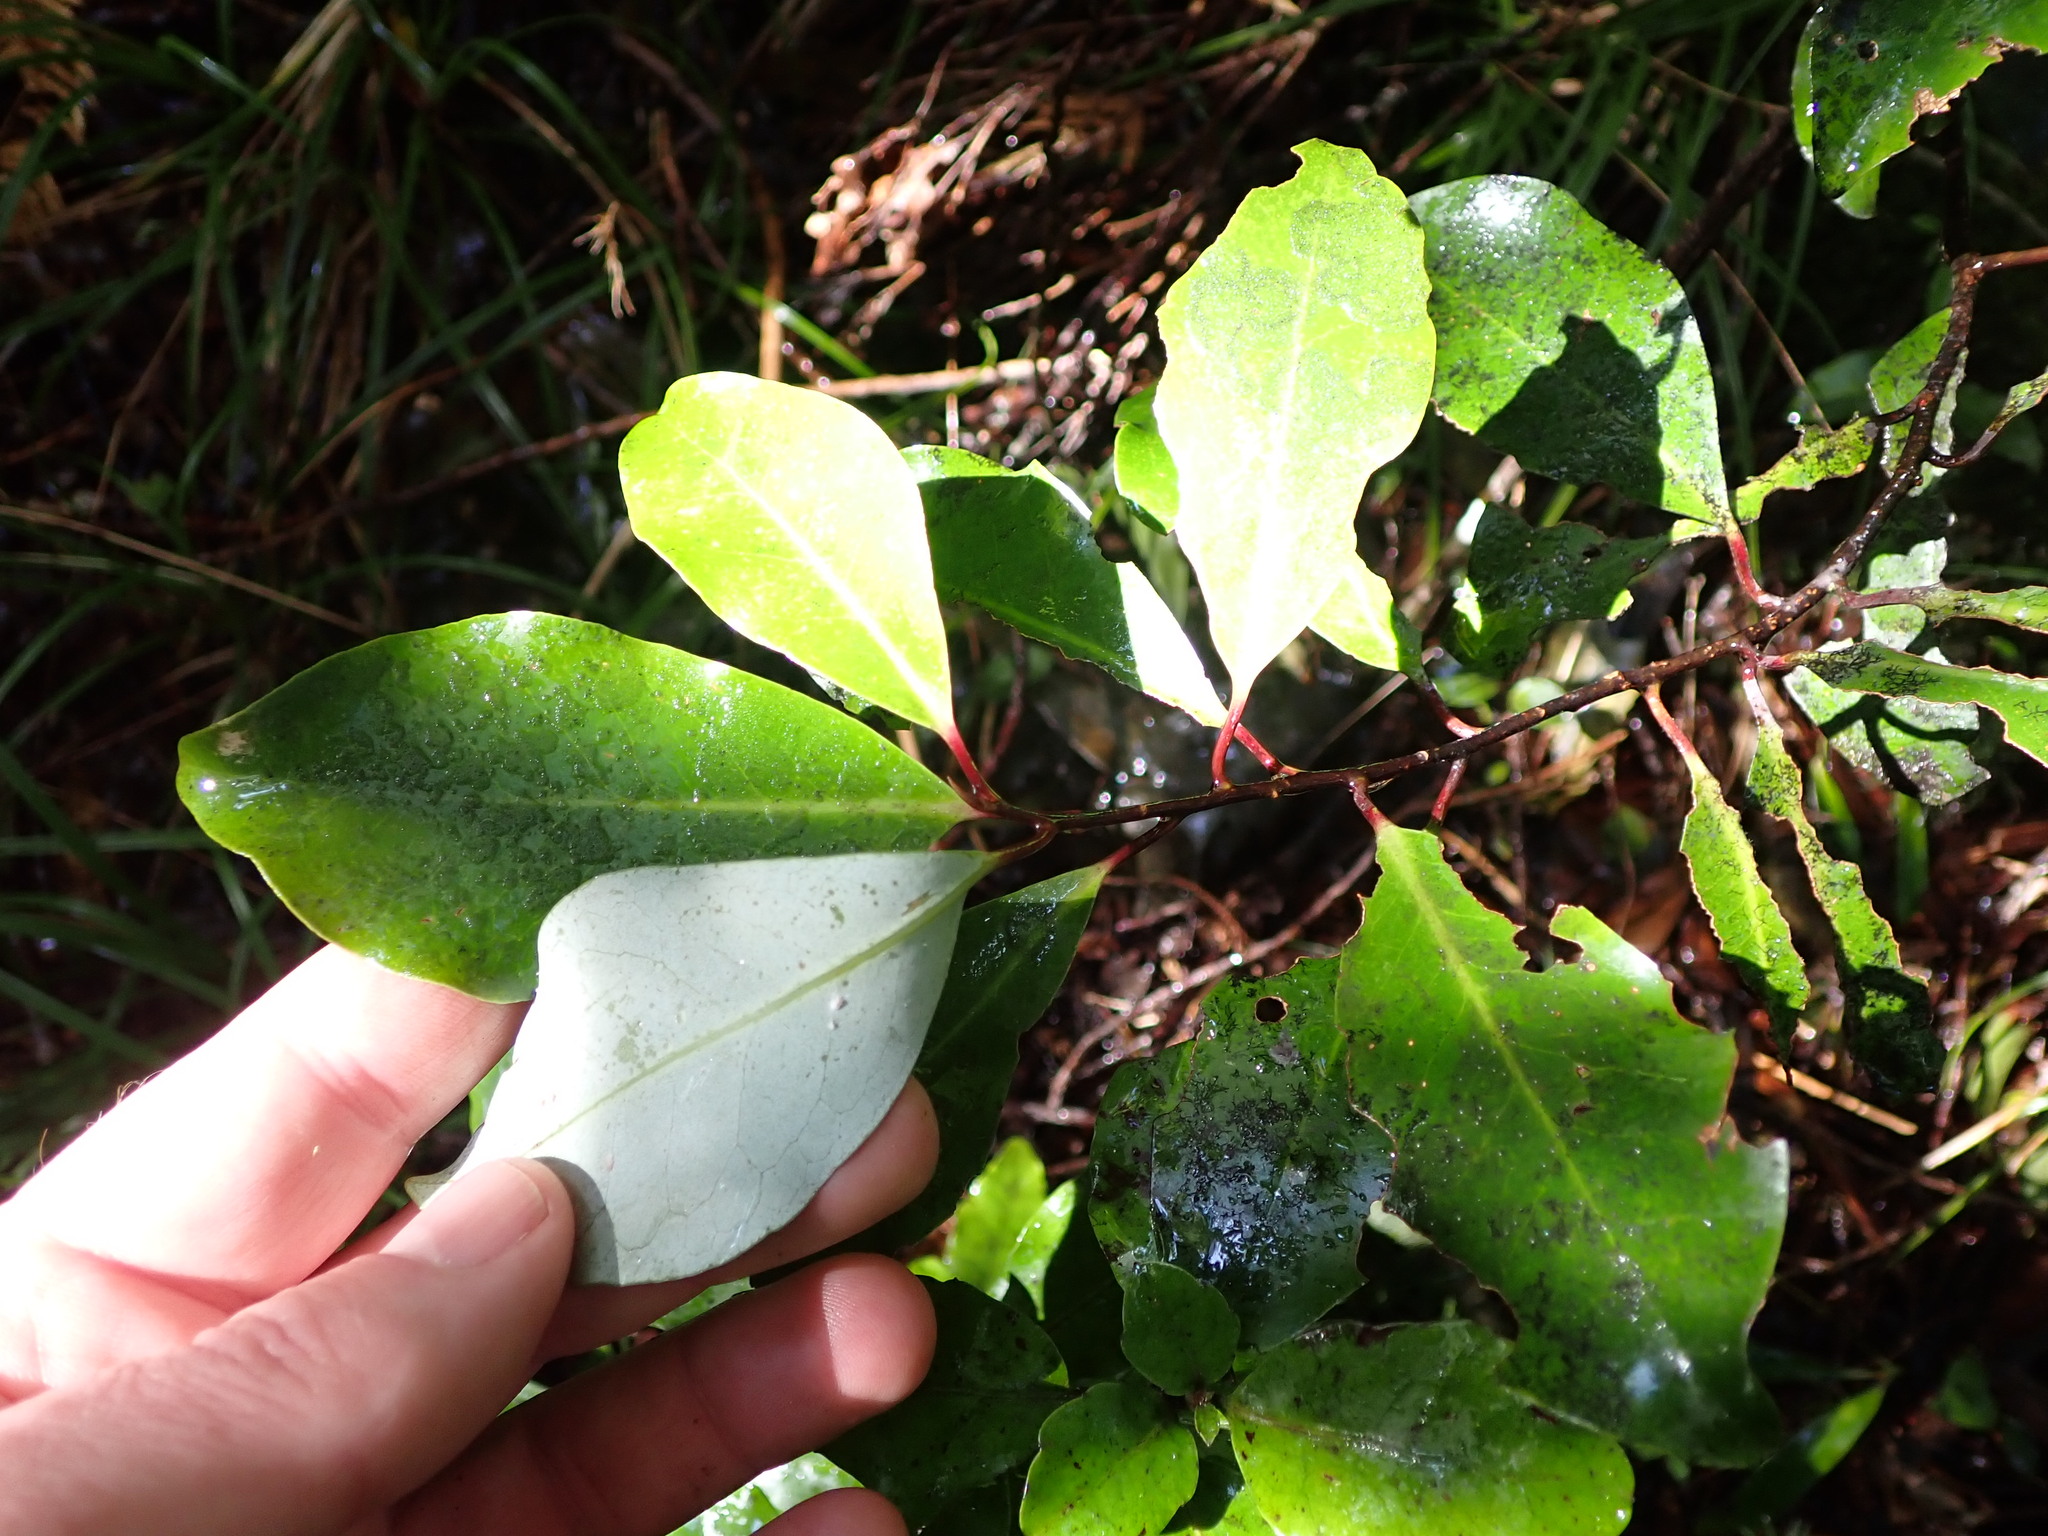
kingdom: Plantae
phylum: Tracheophyta
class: Magnoliopsida
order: Canellales
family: Winteraceae
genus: Pseudowintera
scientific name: Pseudowintera axillaris
